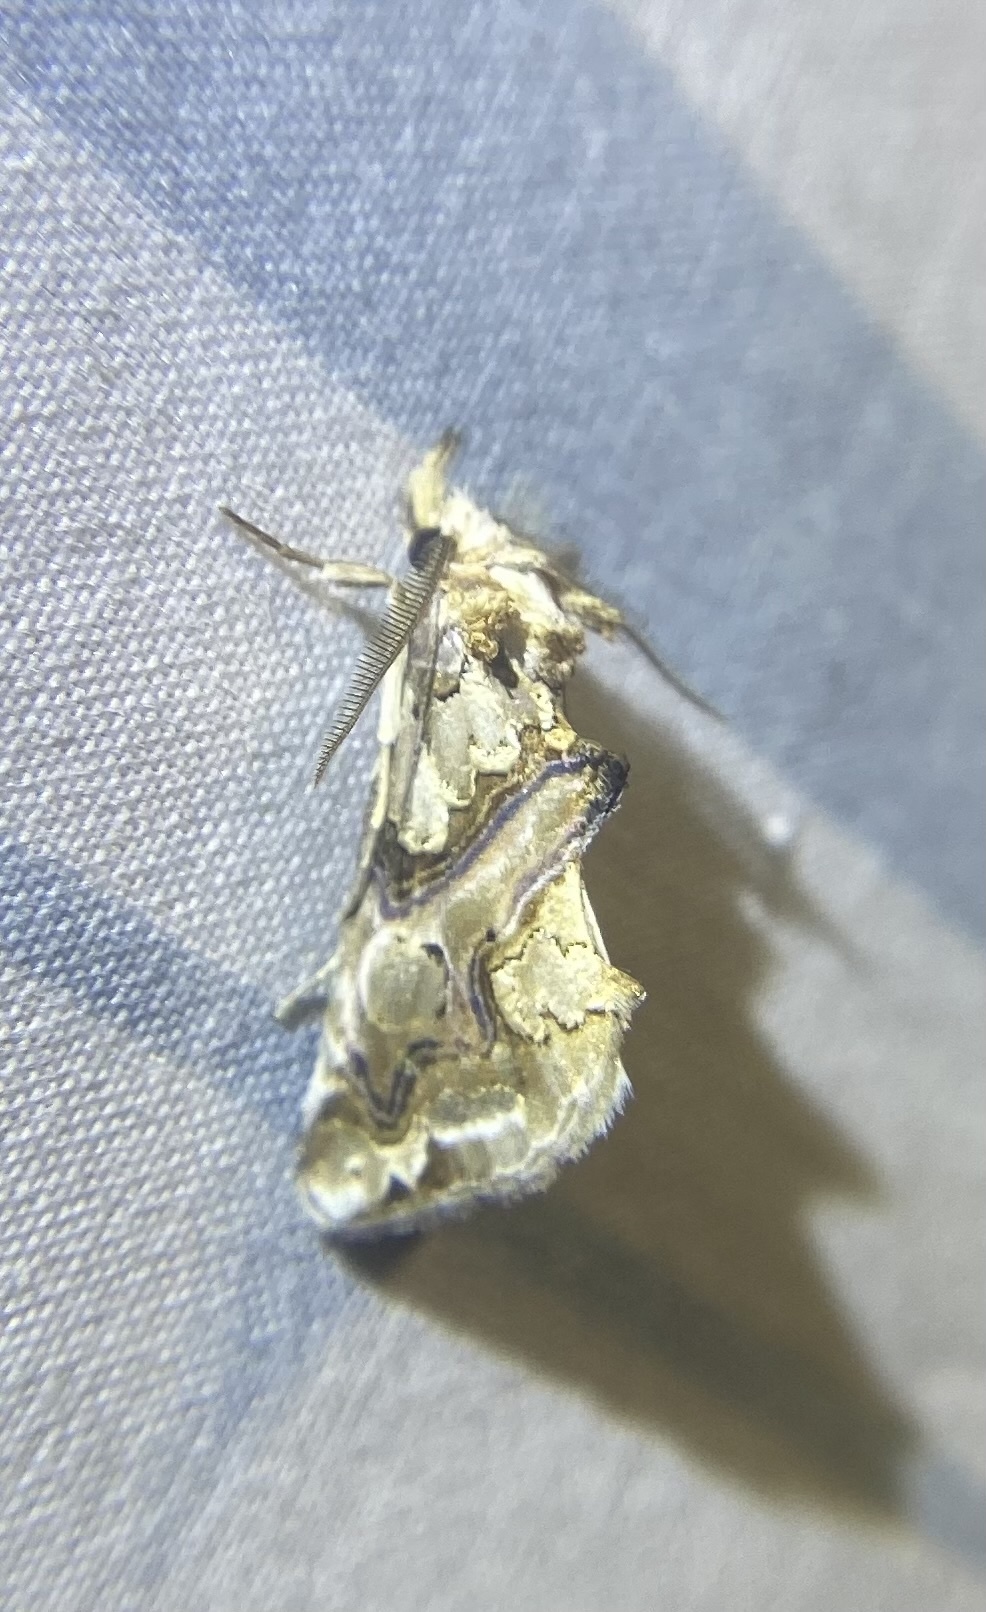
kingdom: Animalia
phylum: Arthropoda
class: Insecta
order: Lepidoptera
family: Erebidae
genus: Plusiodonta
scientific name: Plusiodonta compressipalpis
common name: Moonseed moth
